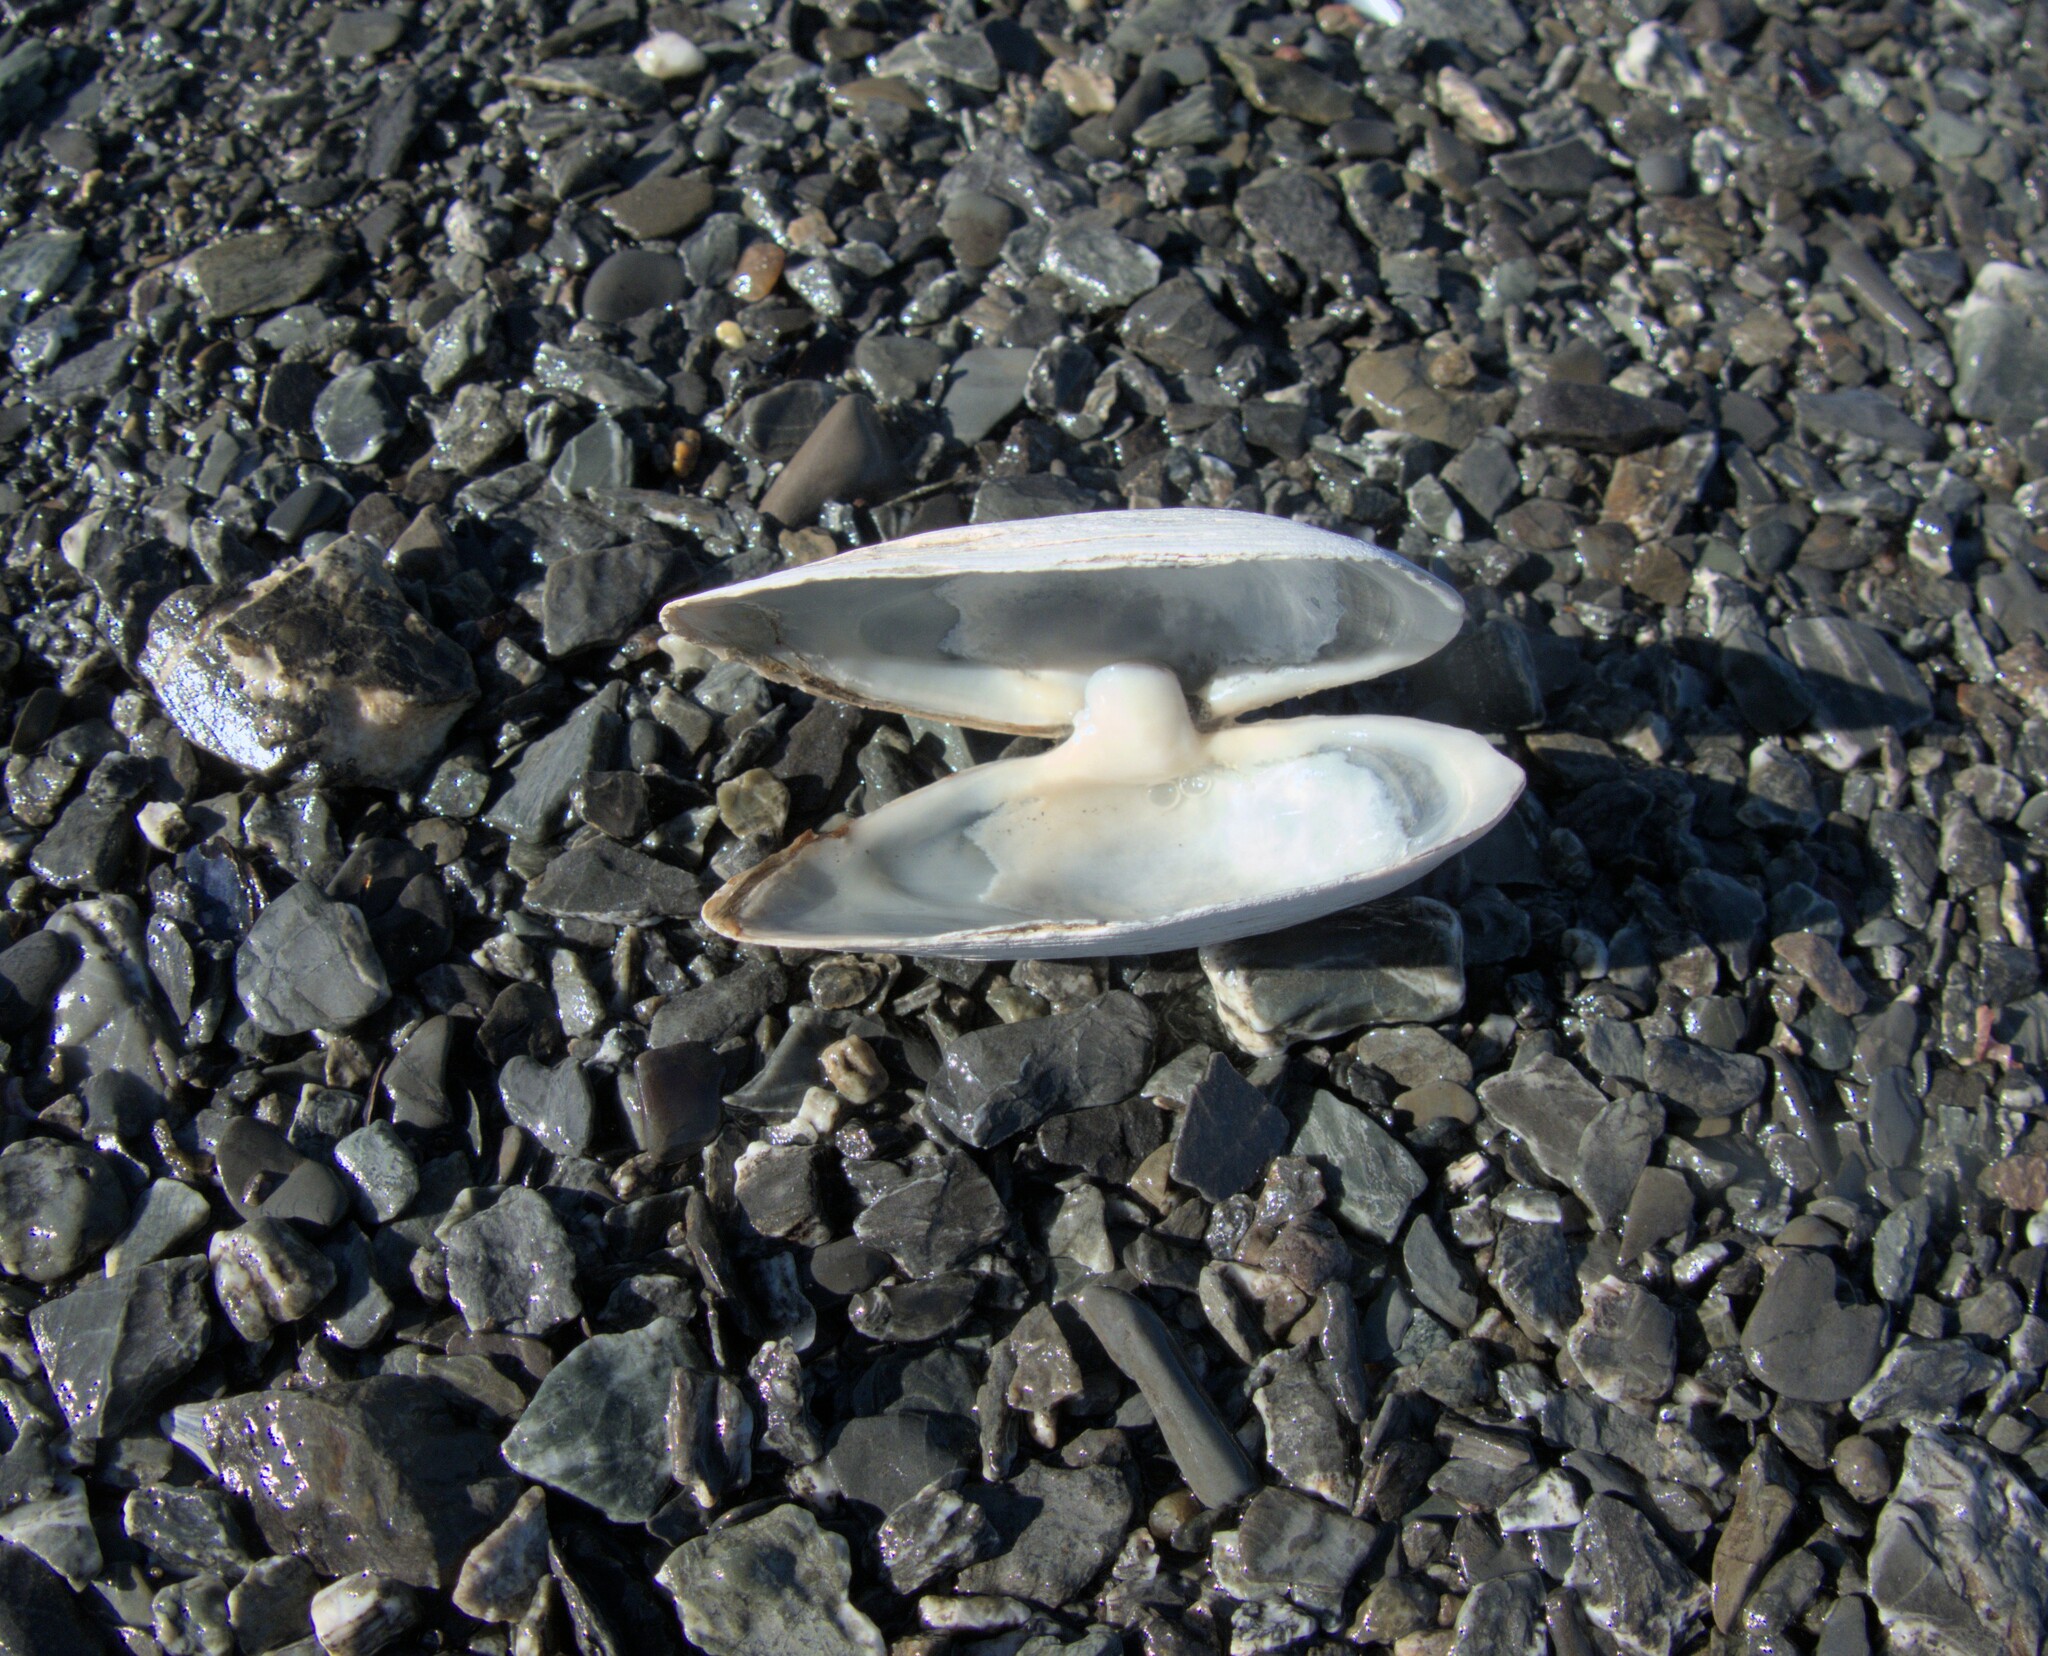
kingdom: Animalia
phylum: Mollusca
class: Bivalvia
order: Myida
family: Myidae
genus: Mya
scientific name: Mya arenaria
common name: Soft-shelled clam
